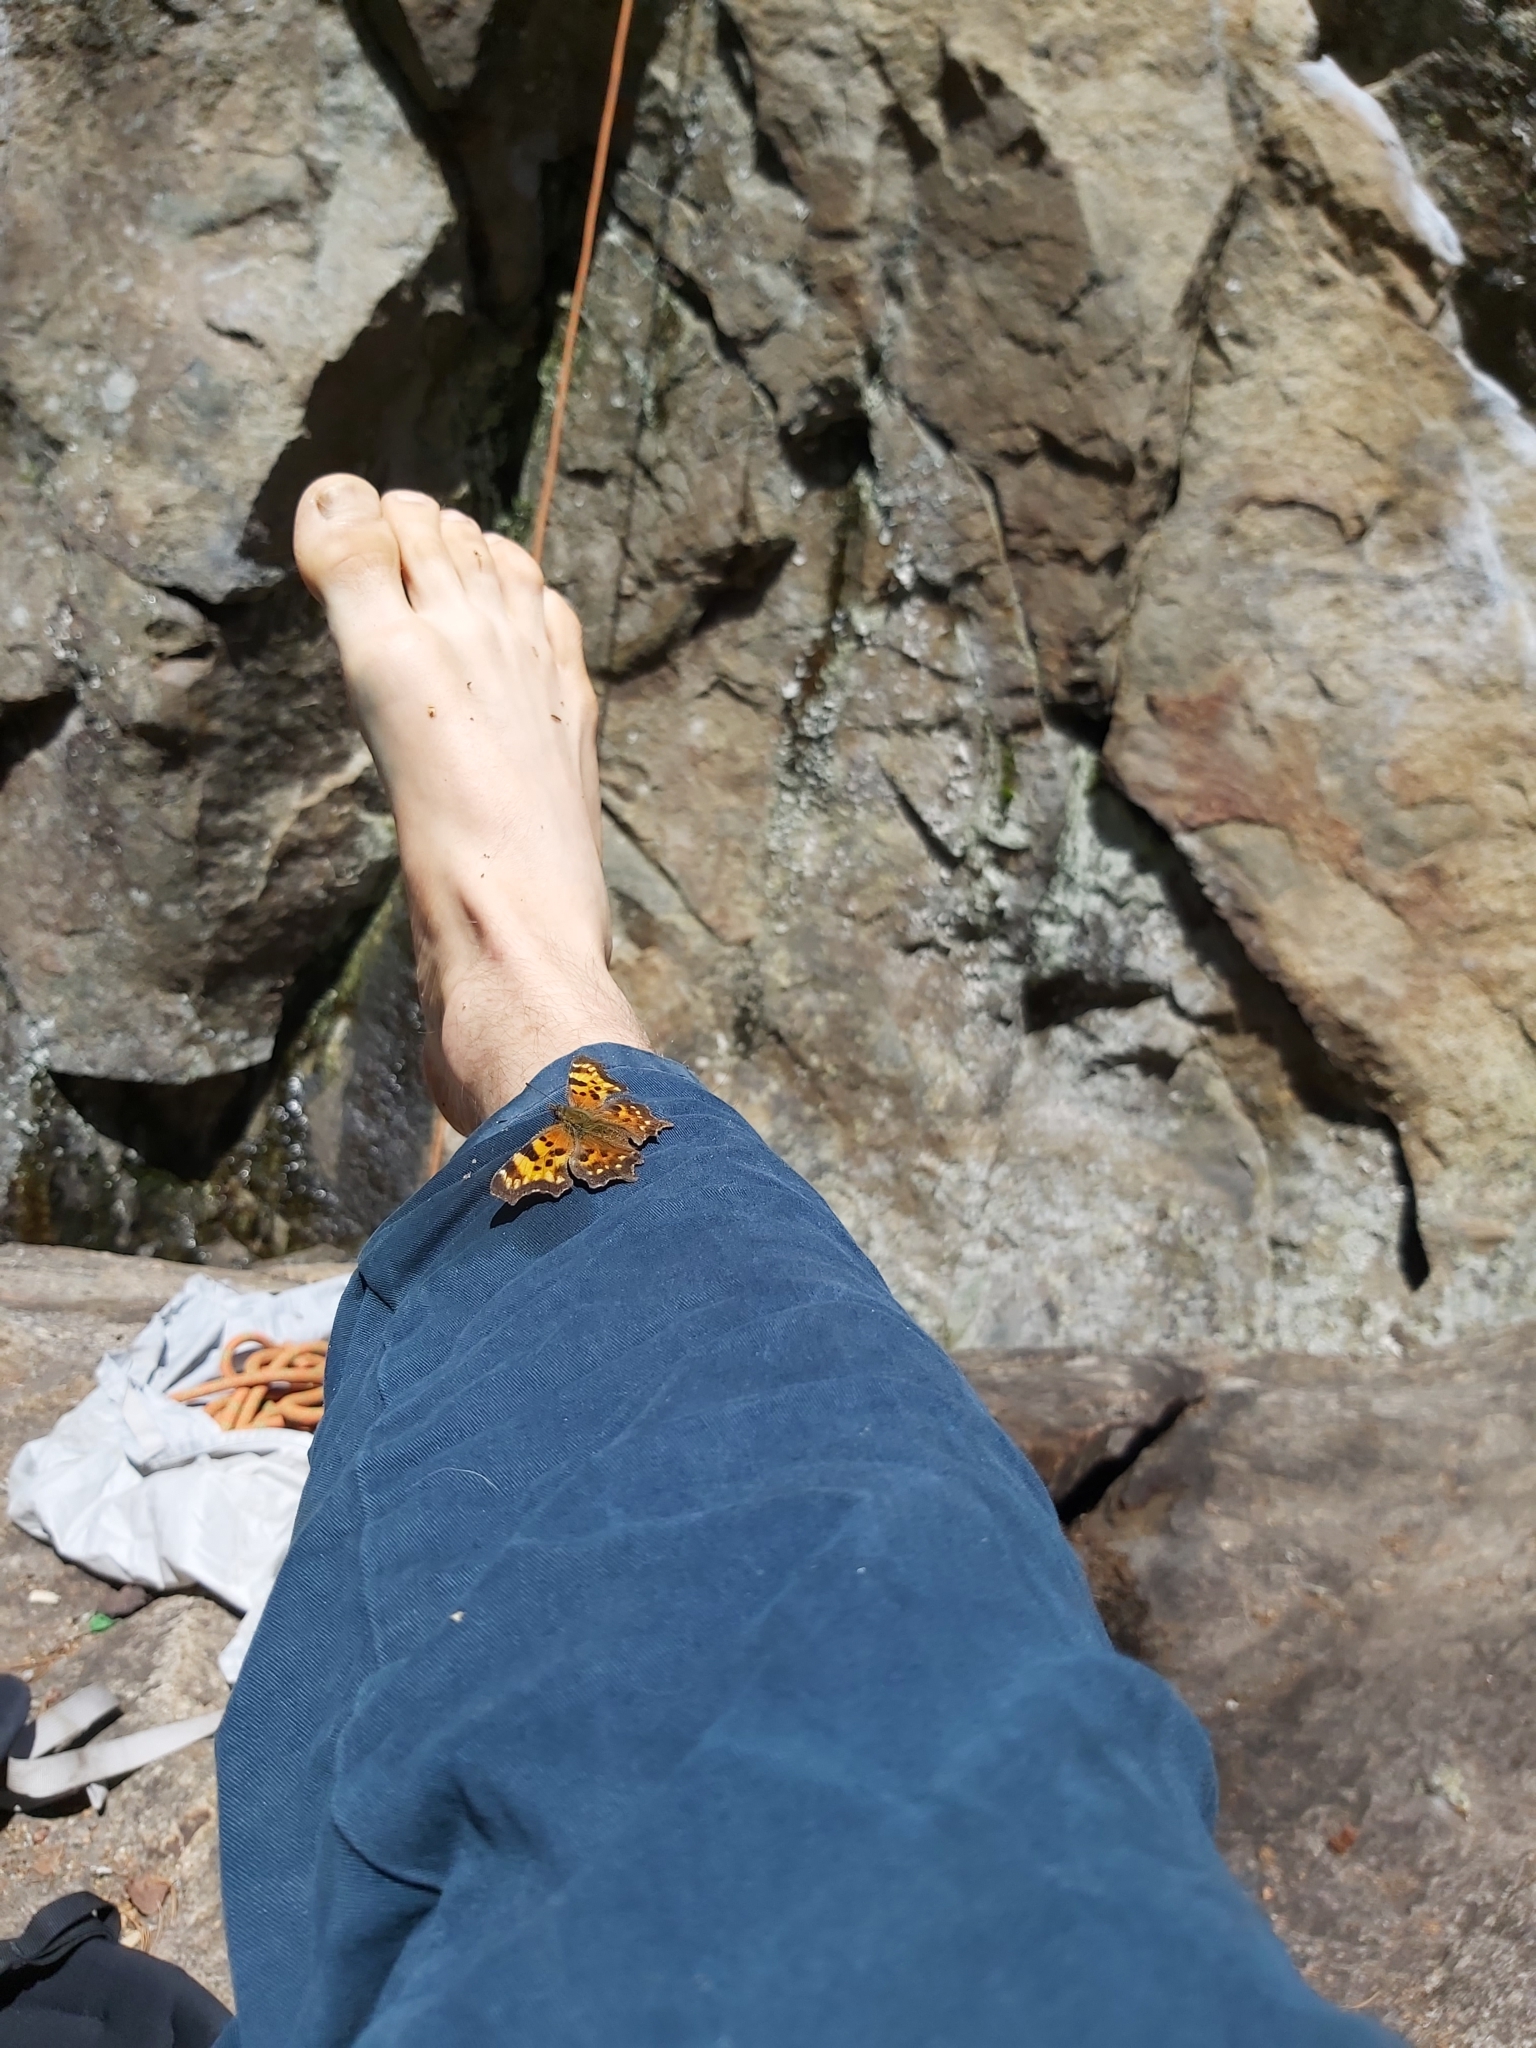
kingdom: Animalia
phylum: Arthropoda
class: Insecta
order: Lepidoptera
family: Nymphalidae
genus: Polygonia
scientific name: Polygonia faunus
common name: Green comma
